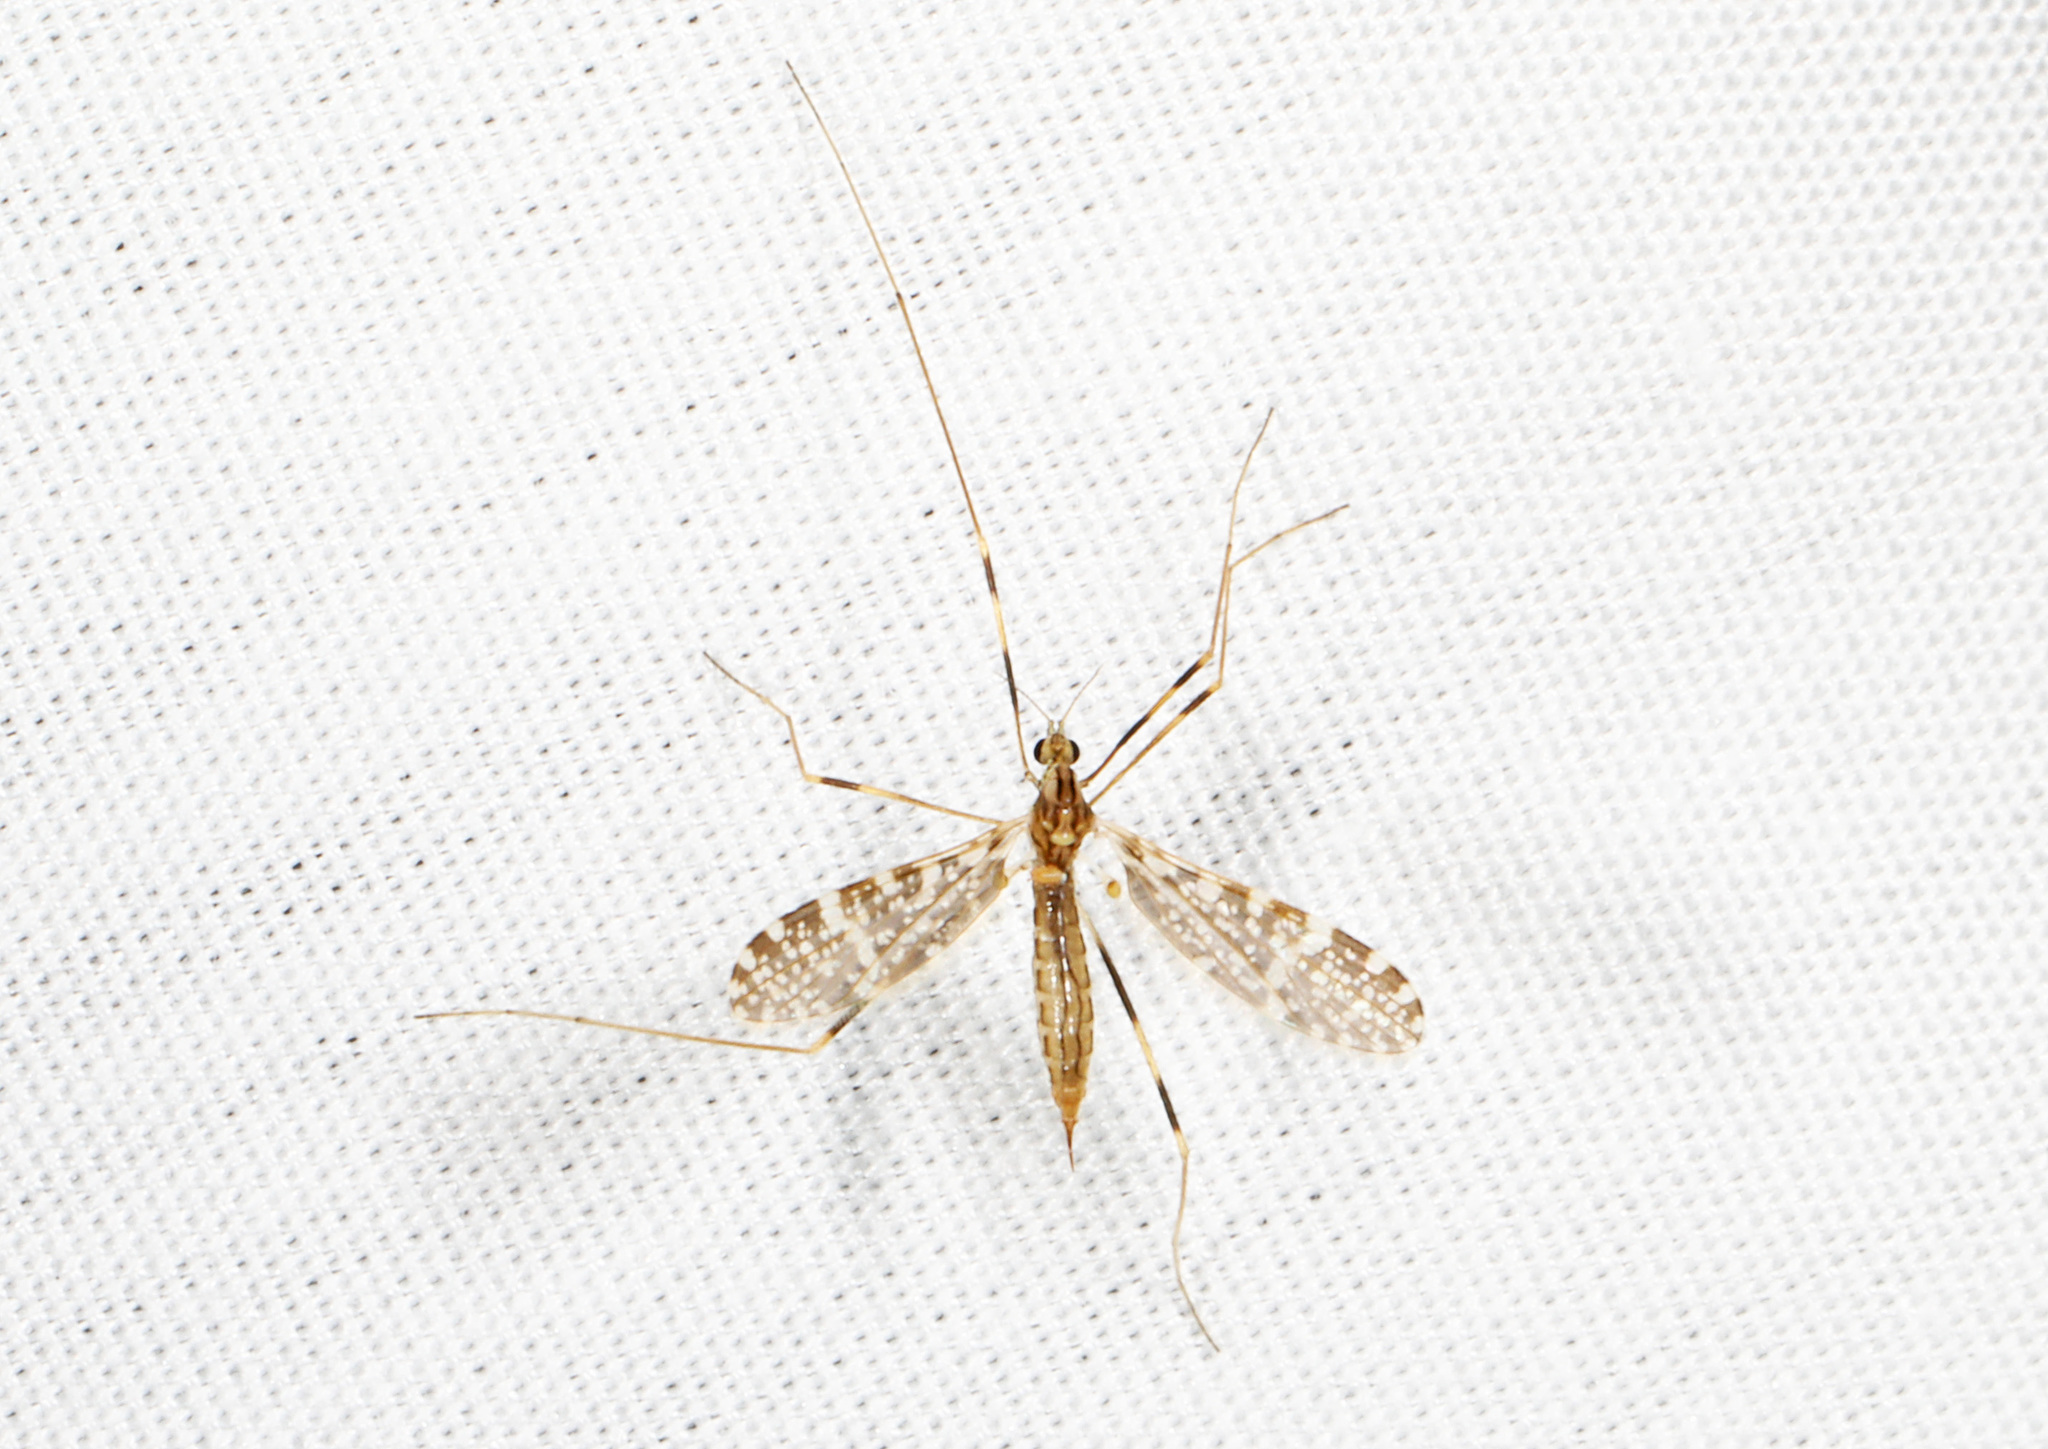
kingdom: Animalia
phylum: Arthropoda
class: Insecta
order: Diptera
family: Limoniidae
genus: Erioptera
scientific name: Erioptera caliptera
